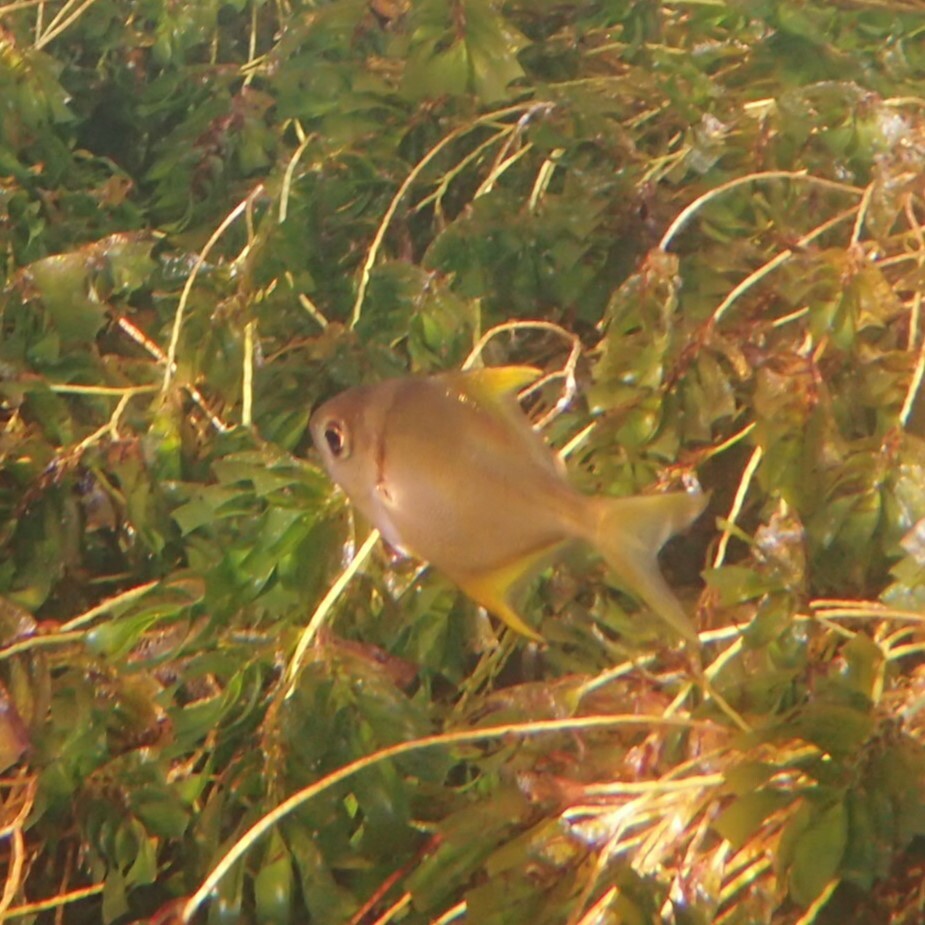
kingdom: Animalia
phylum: Chordata
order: Perciformes
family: Monodactylidae
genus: Schuettea
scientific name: Schuettea woodwardi
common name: Western pomfred
